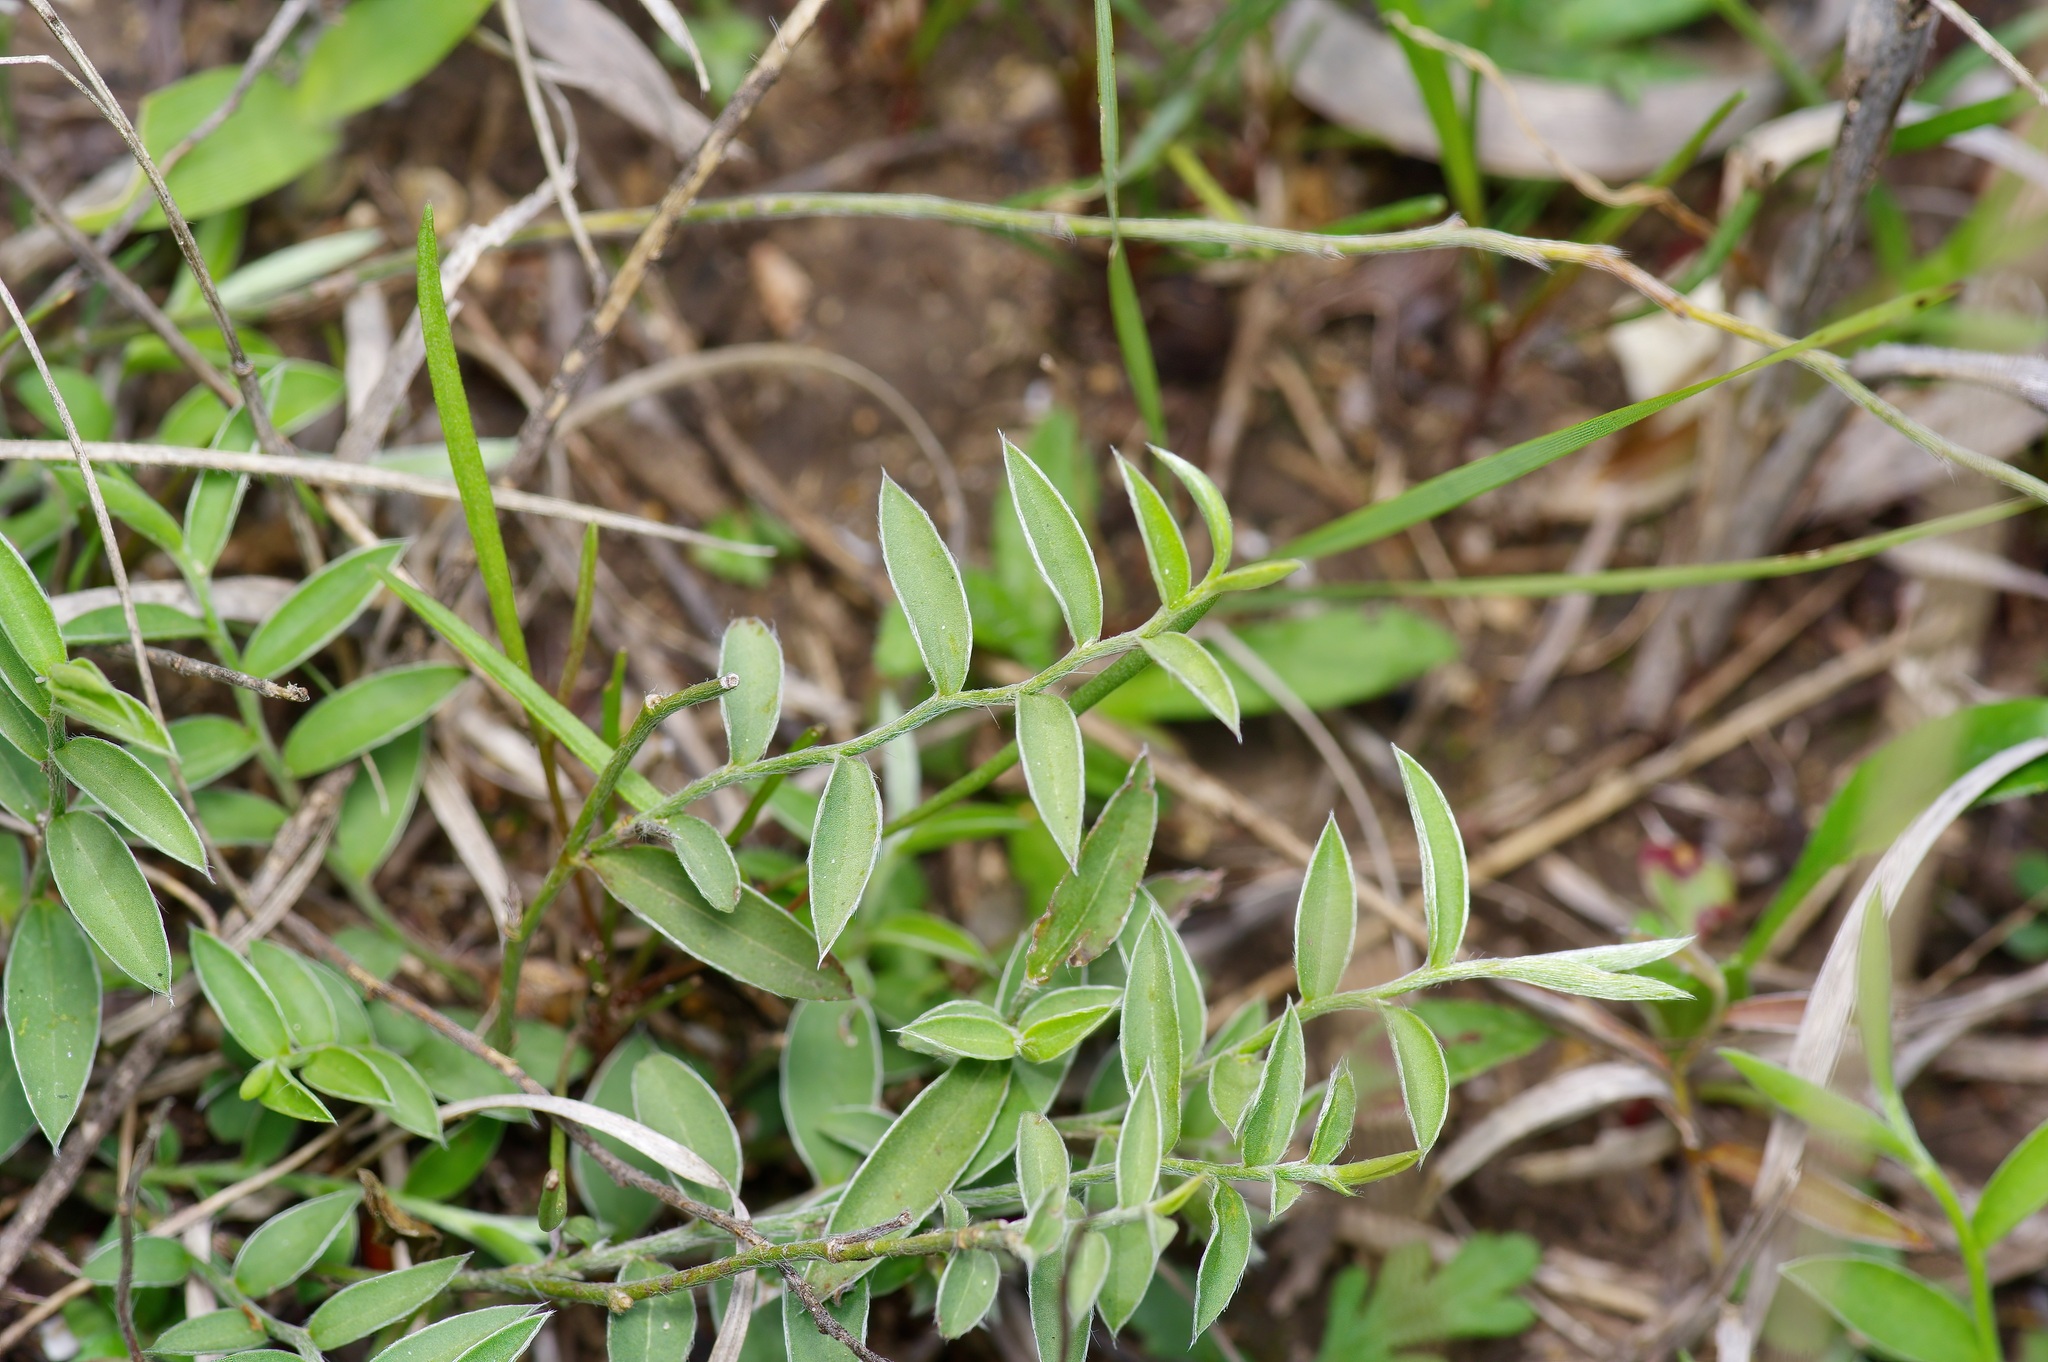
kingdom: Plantae
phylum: Tracheophyta
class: Magnoliopsida
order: Solanales
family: Convolvulaceae
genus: Evolvulus
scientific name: Evolvulus sericeus
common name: Blue dots
